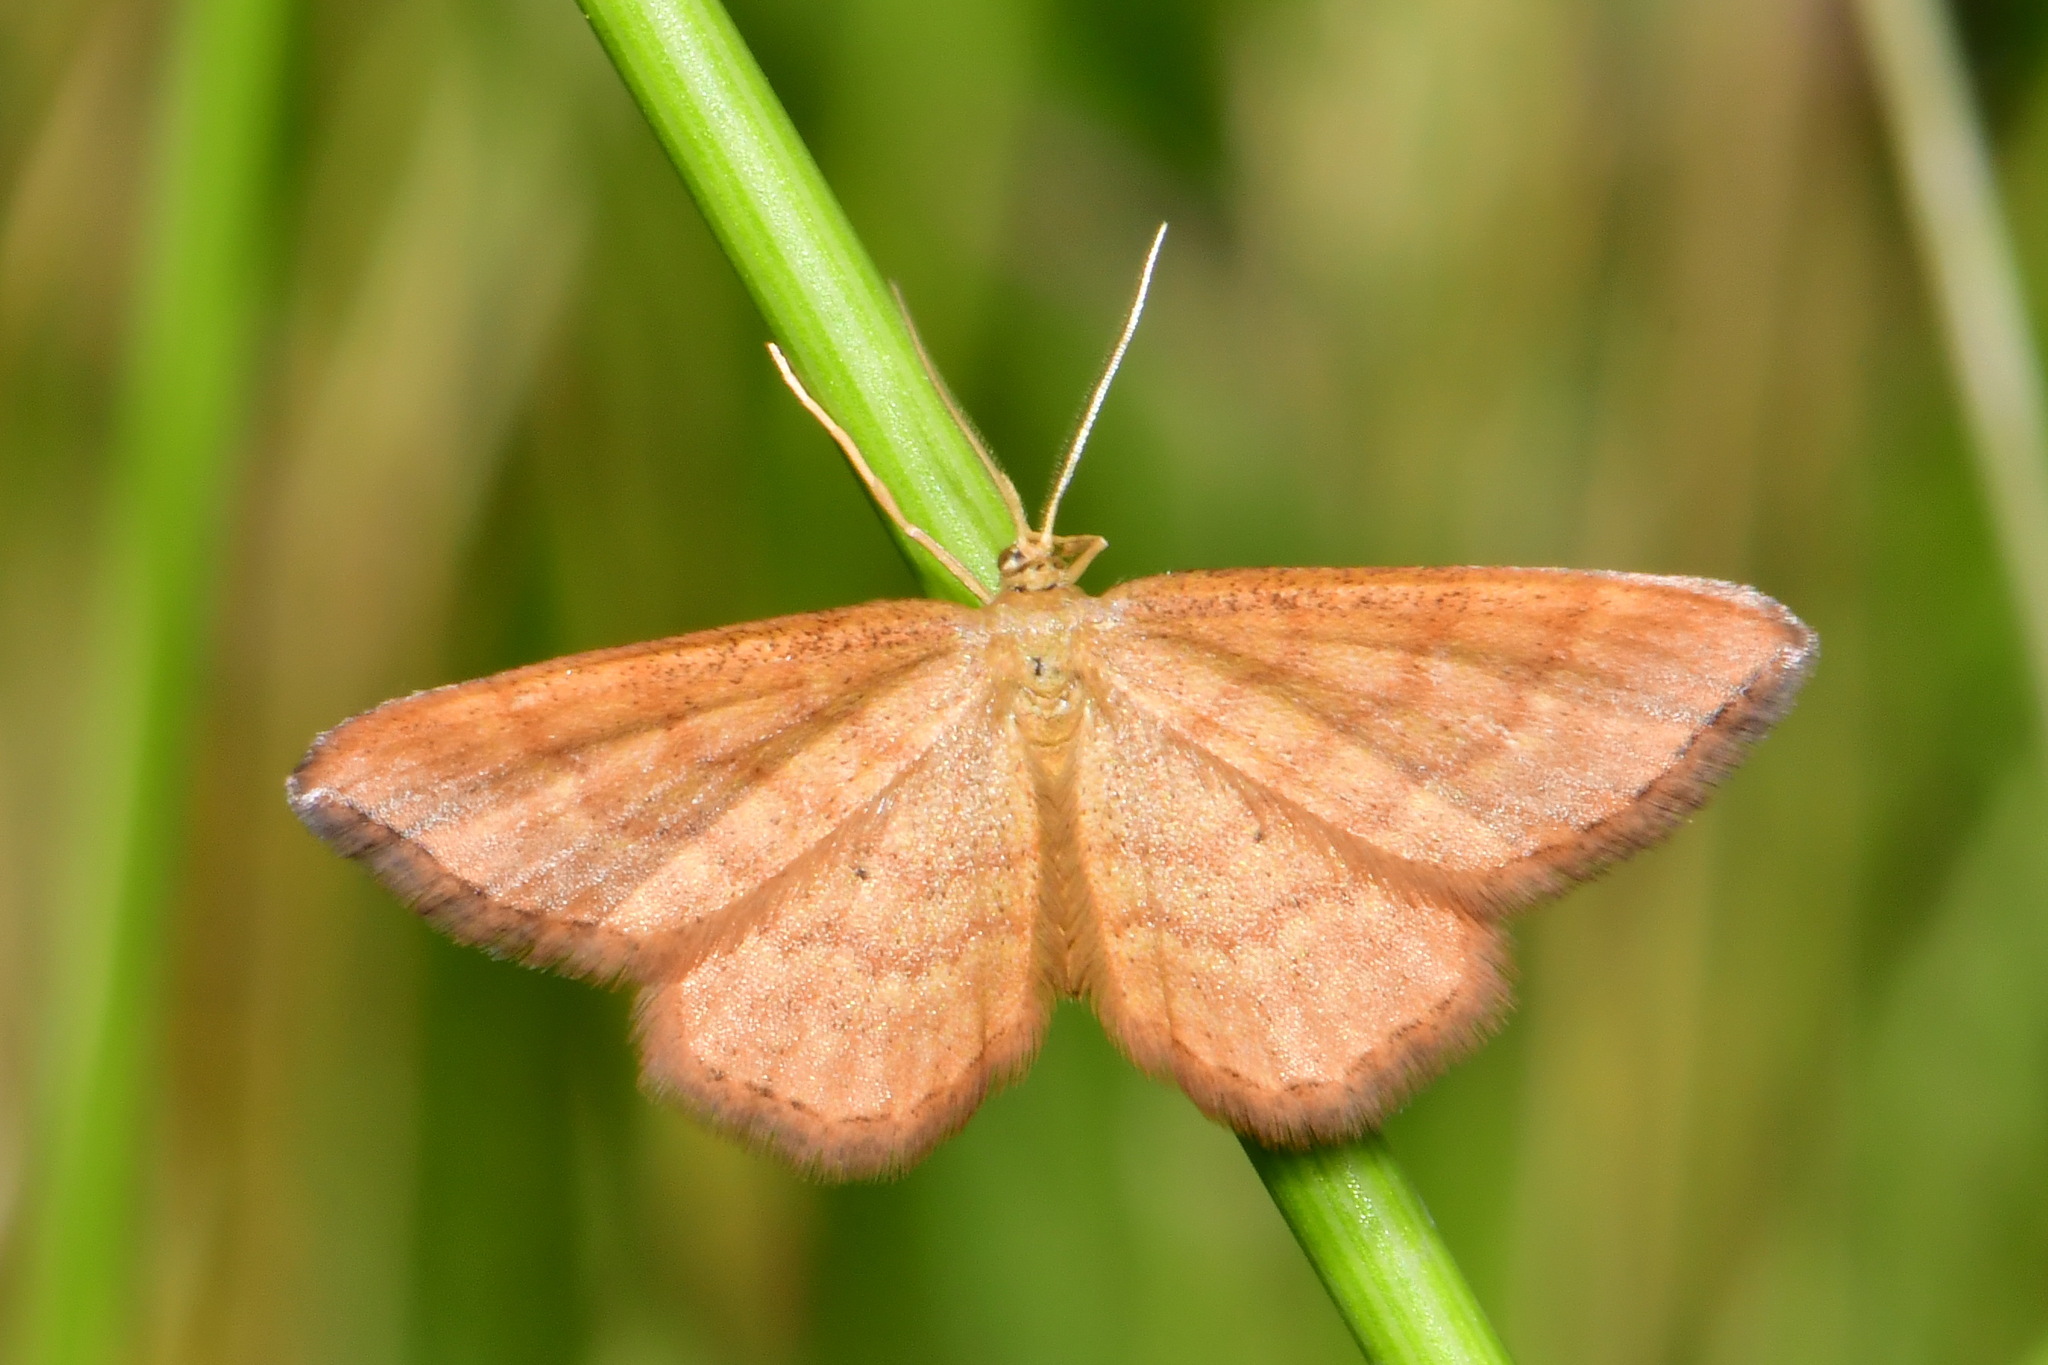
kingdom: Animalia
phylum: Arthropoda
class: Insecta
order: Lepidoptera
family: Geometridae
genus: Idaea
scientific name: Idaea serpentata
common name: Ochraceous wave
